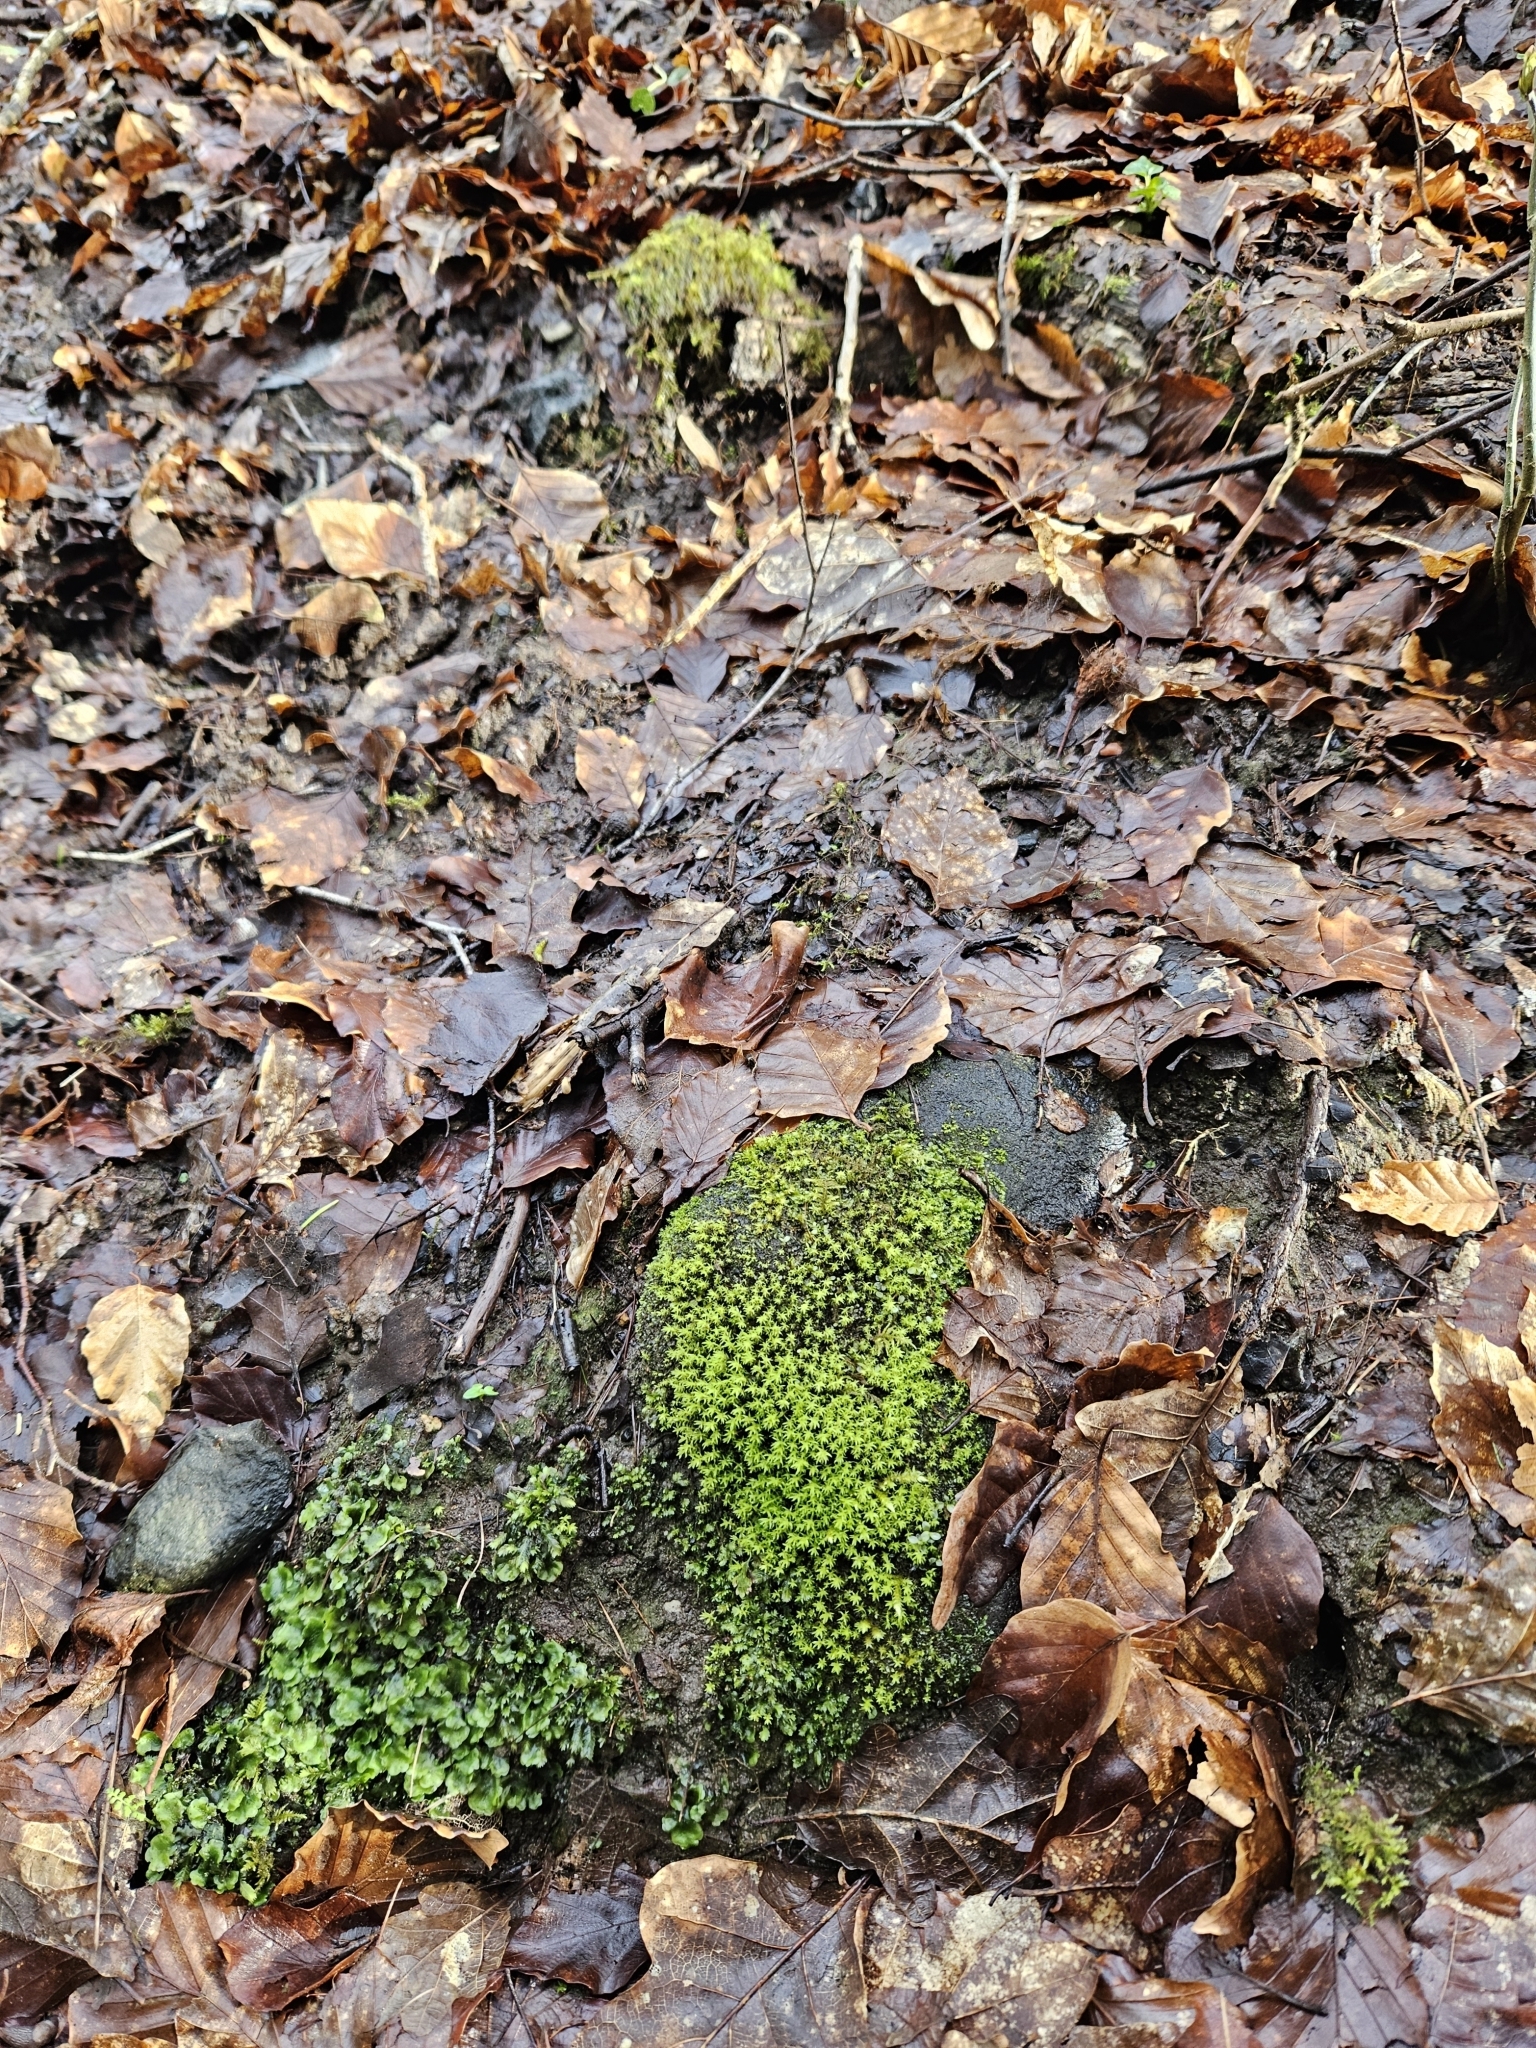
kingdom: Plantae
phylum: Bryophyta
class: Bryopsida
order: Dicranales
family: Aongstroemiaceae
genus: Dichodontium
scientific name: Dichodontium pellucidum
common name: Transparent fork moss
